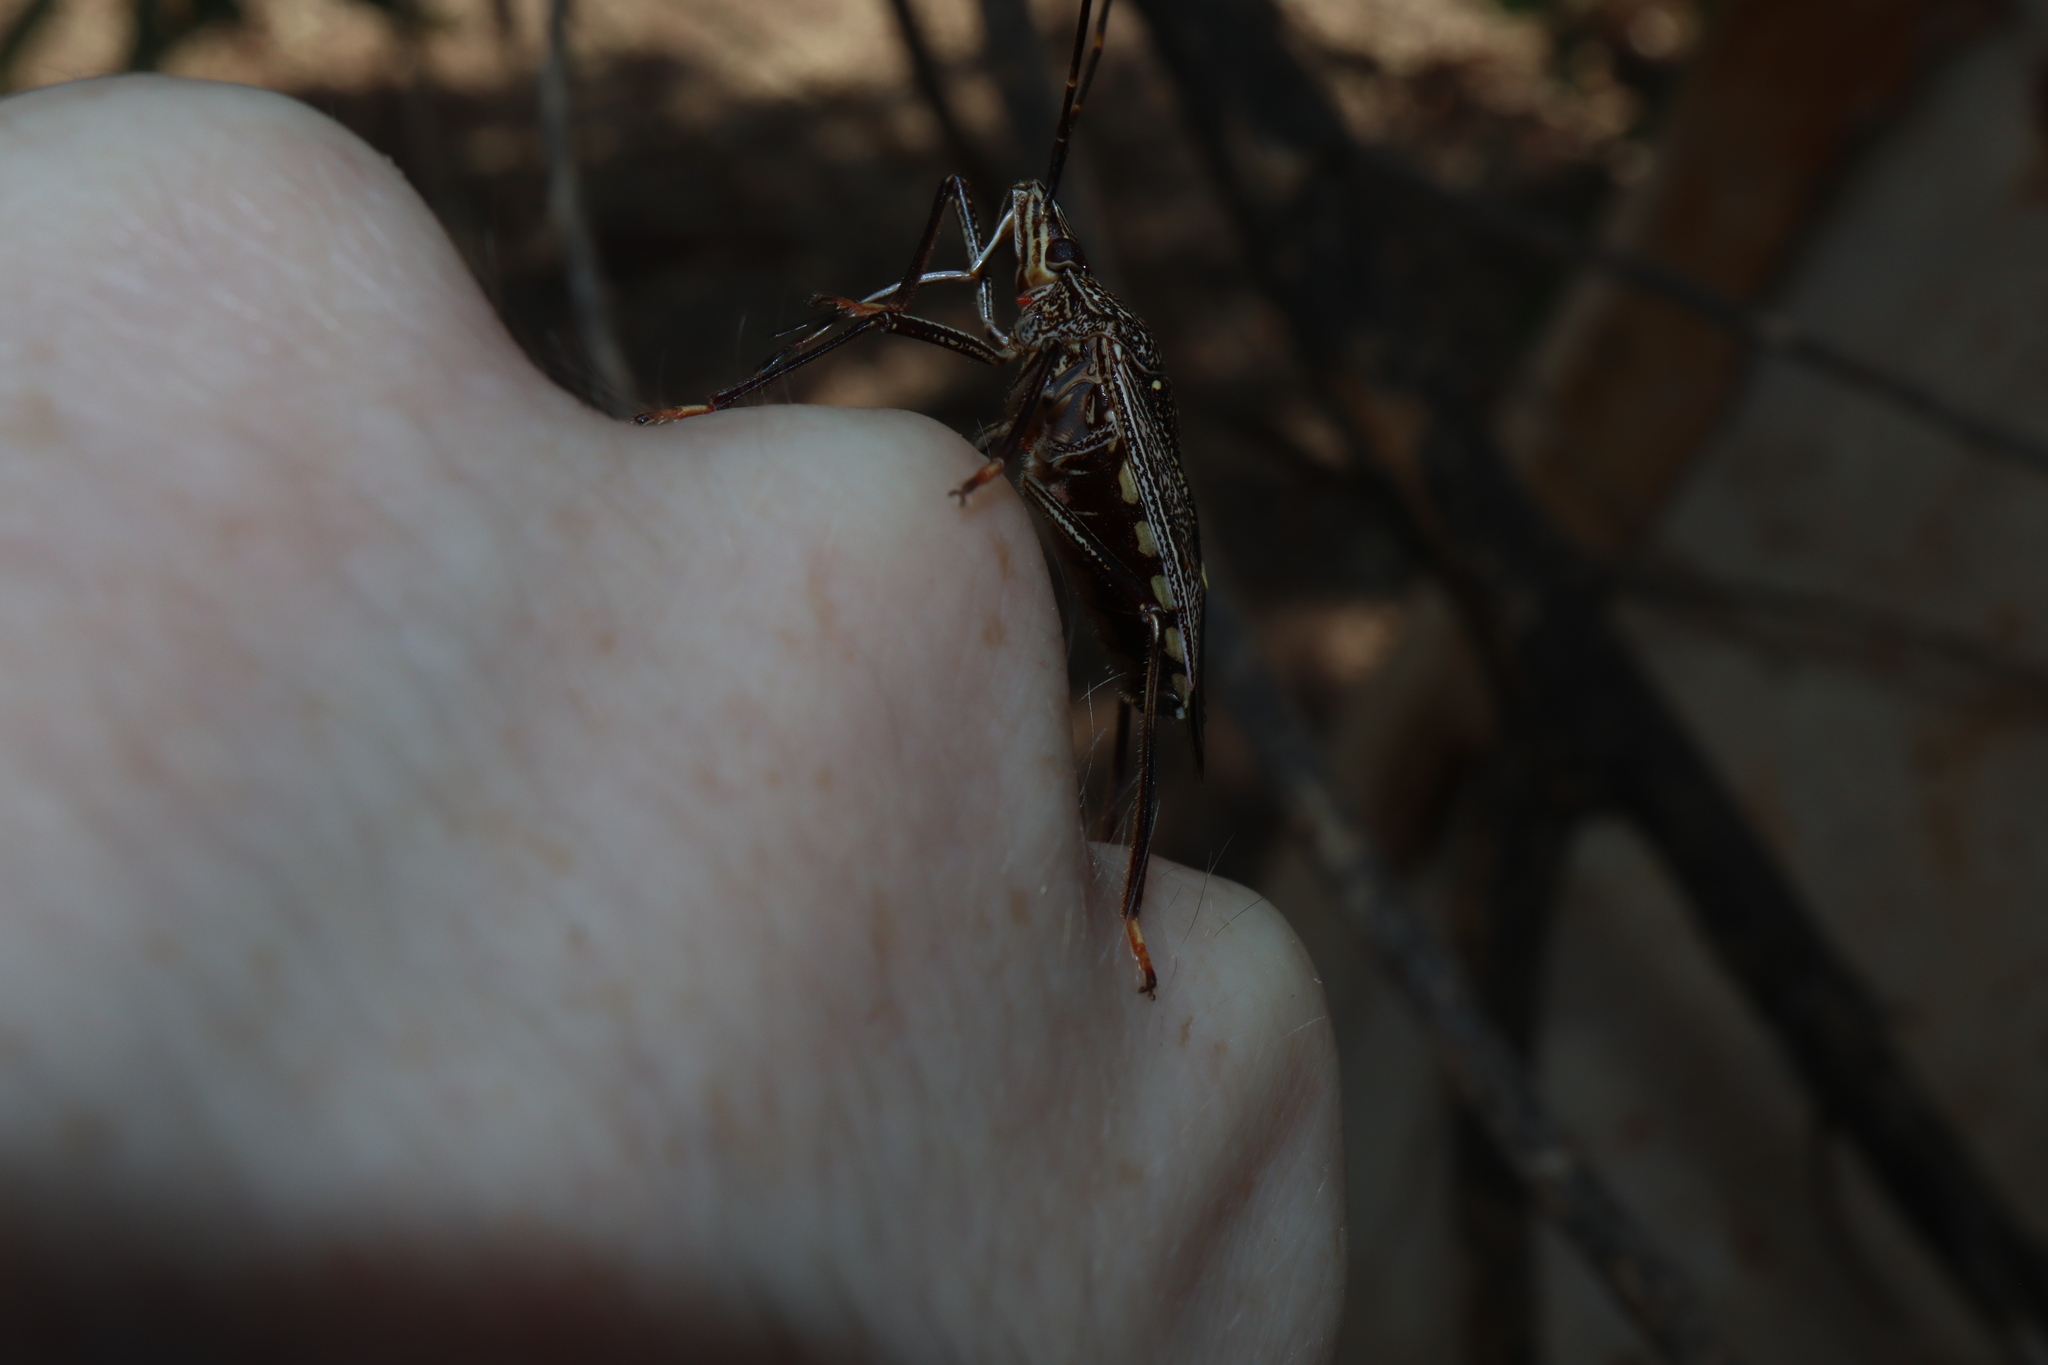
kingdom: Animalia
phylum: Arthropoda
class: Insecta
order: Hemiptera
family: Pentatomidae
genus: Poecilometis
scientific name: Poecilometis
